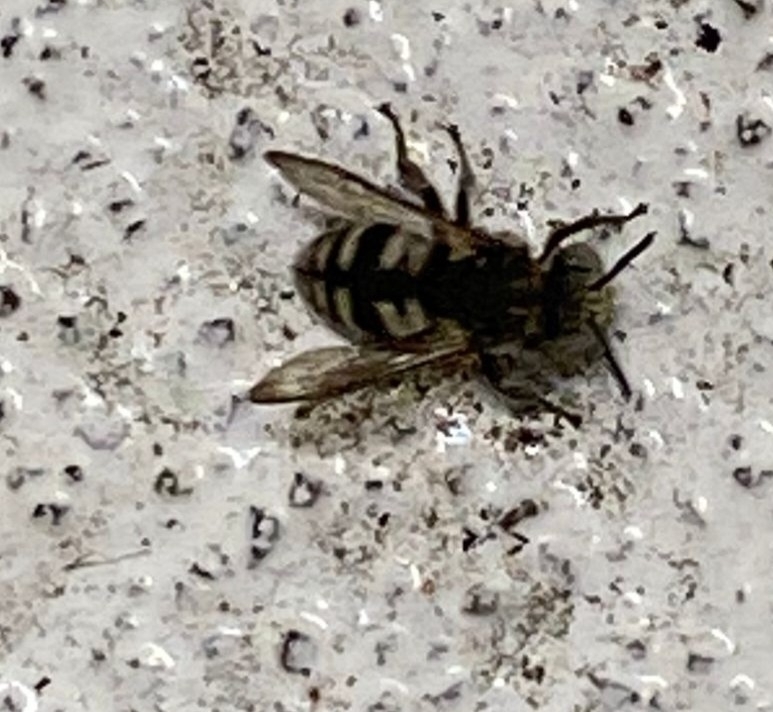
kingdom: Animalia
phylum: Arthropoda
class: Insecta
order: Hymenoptera
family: Apidae
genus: Epeolus
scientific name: Epeolus
